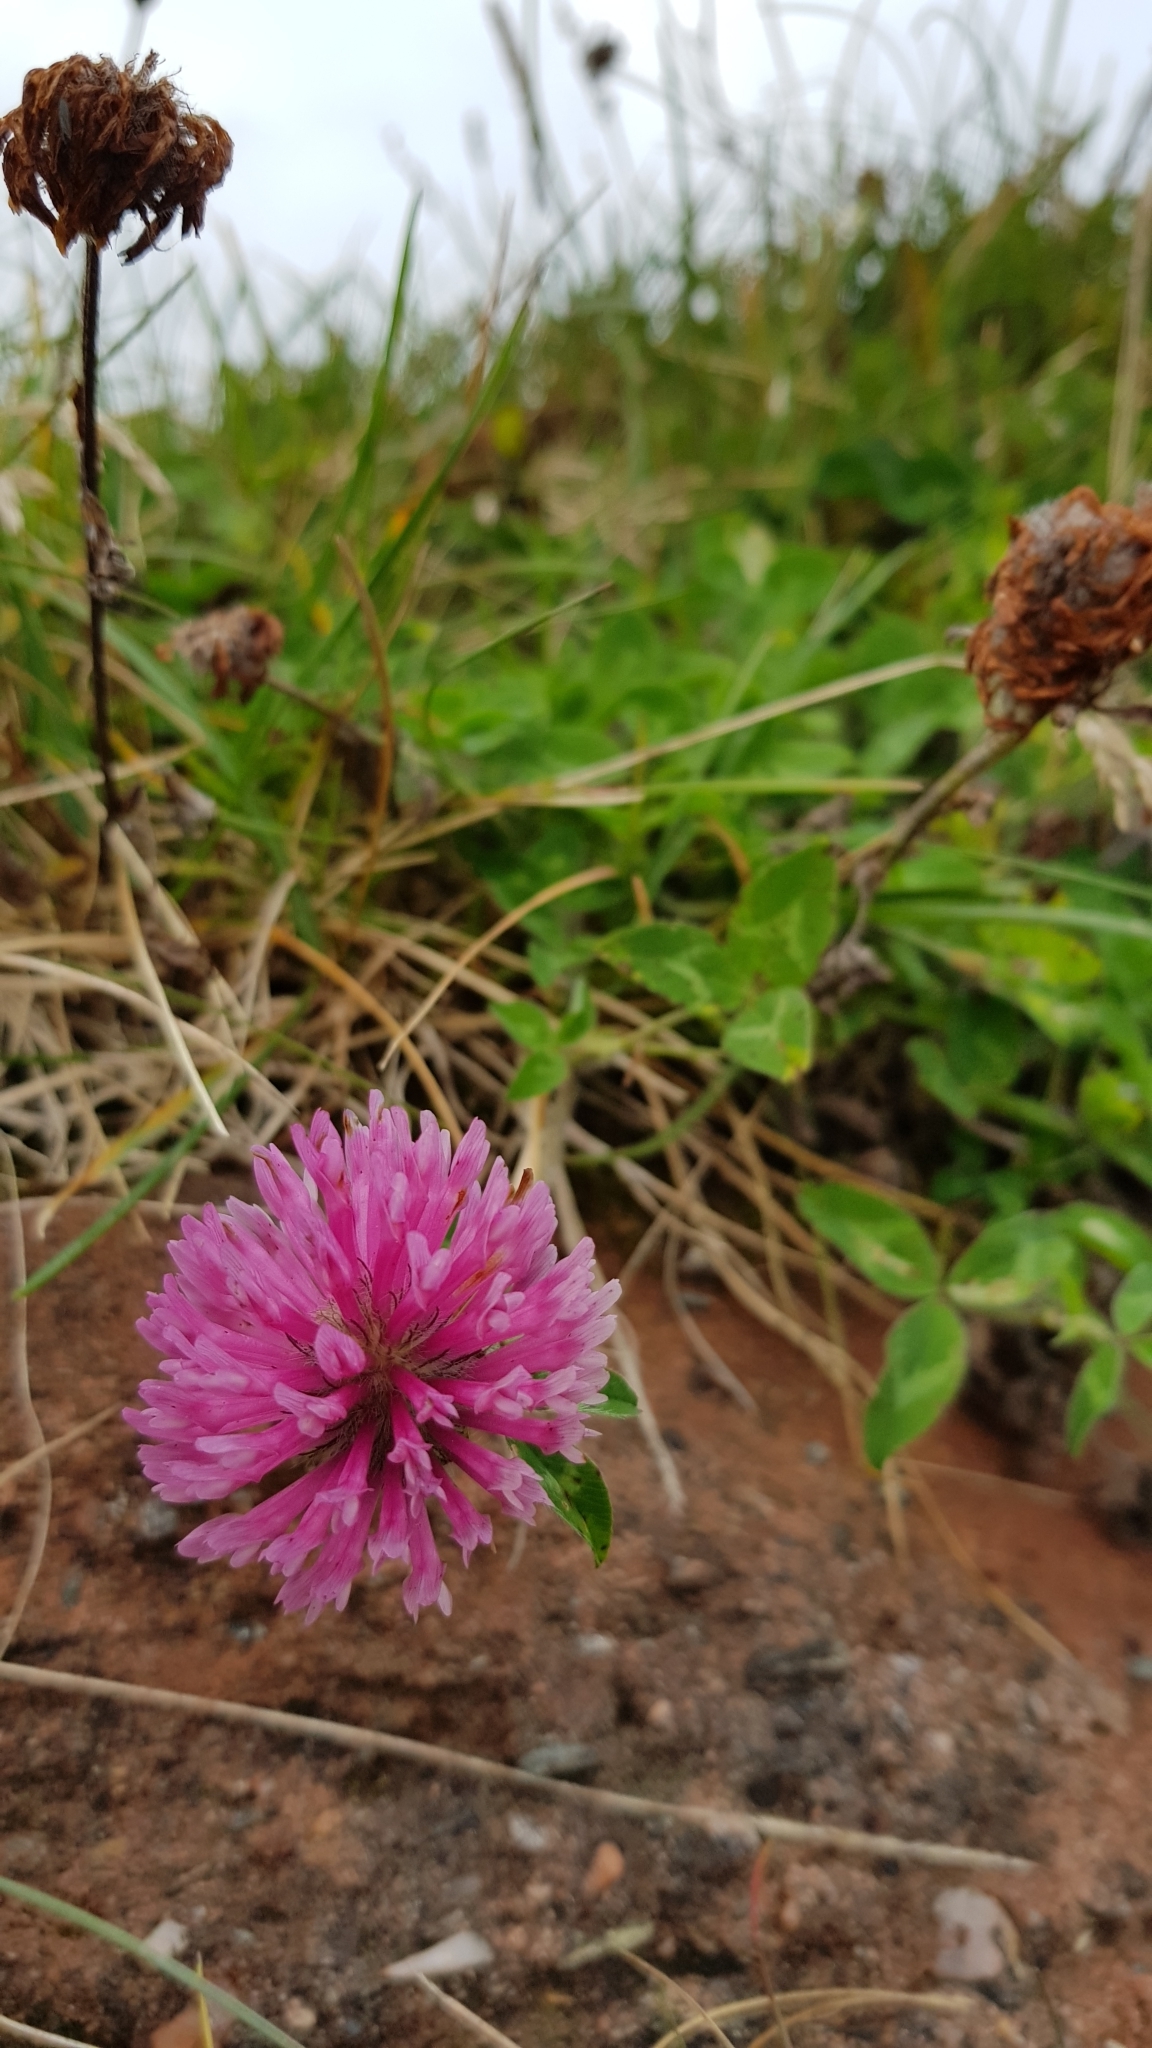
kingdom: Plantae
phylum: Tracheophyta
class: Magnoliopsida
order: Fabales
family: Fabaceae
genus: Trifolium
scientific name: Trifolium pratense
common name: Red clover
